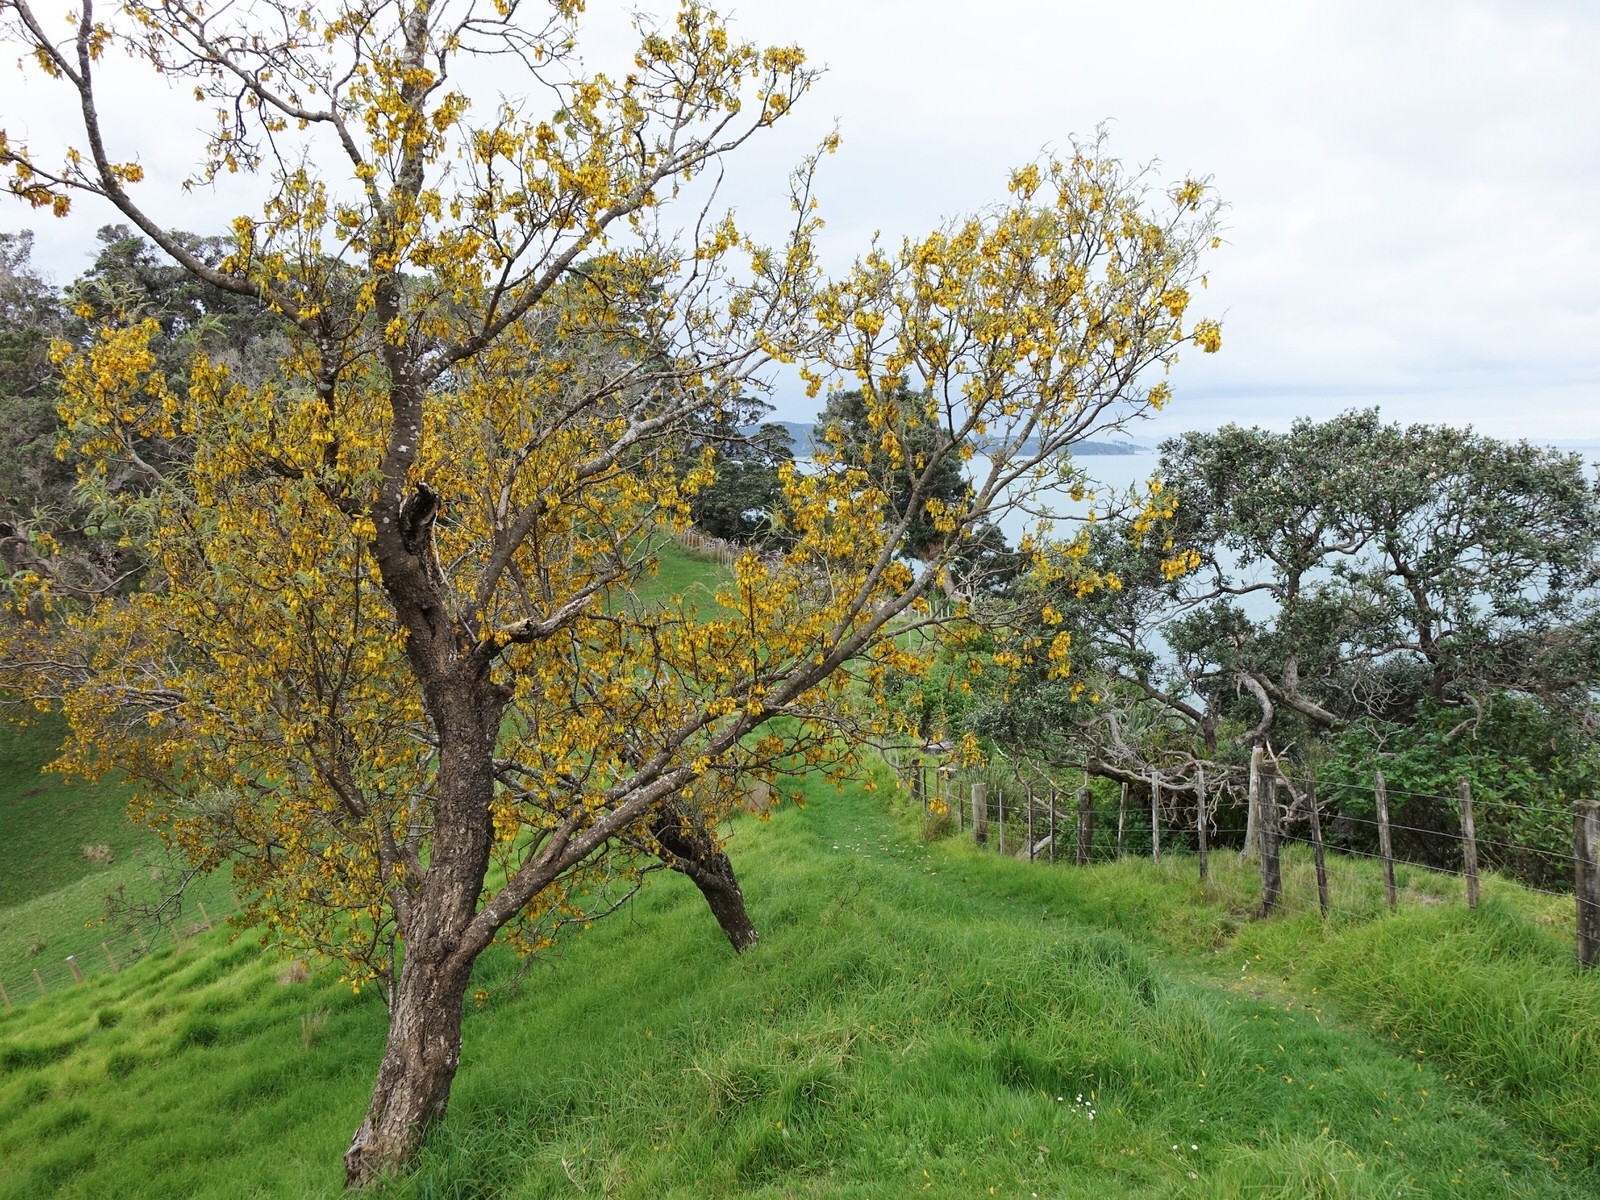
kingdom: Plantae
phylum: Tracheophyta
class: Magnoliopsida
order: Fabales
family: Fabaceae
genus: Sophora
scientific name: Sophora chathamica
